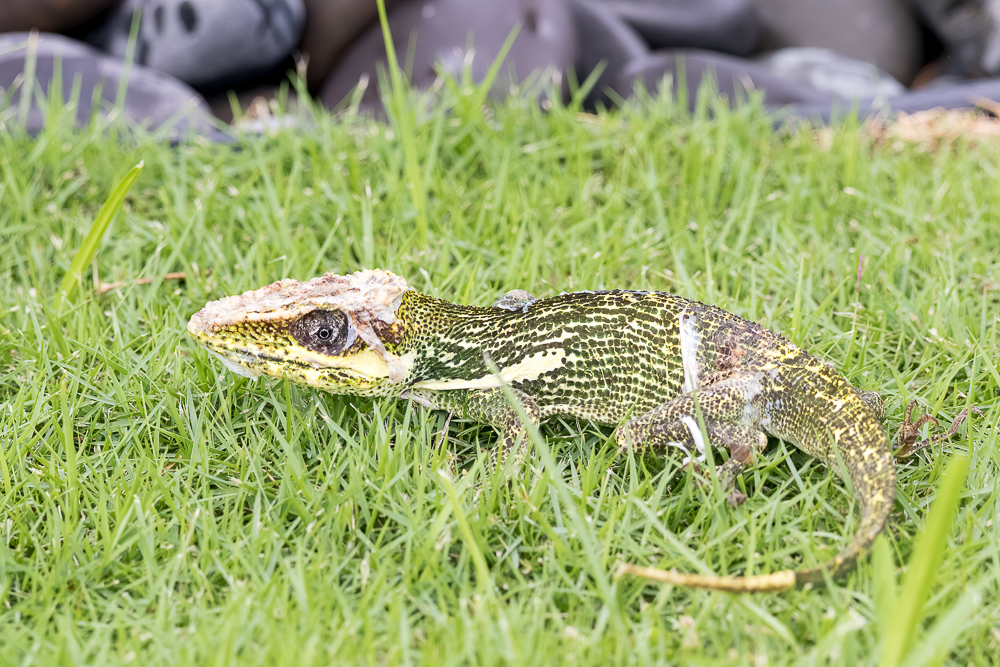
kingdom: Animalia
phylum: Chordata
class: Squamata
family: Dactyloidae
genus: Anolis
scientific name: Anolis equestris
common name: Knight anole
